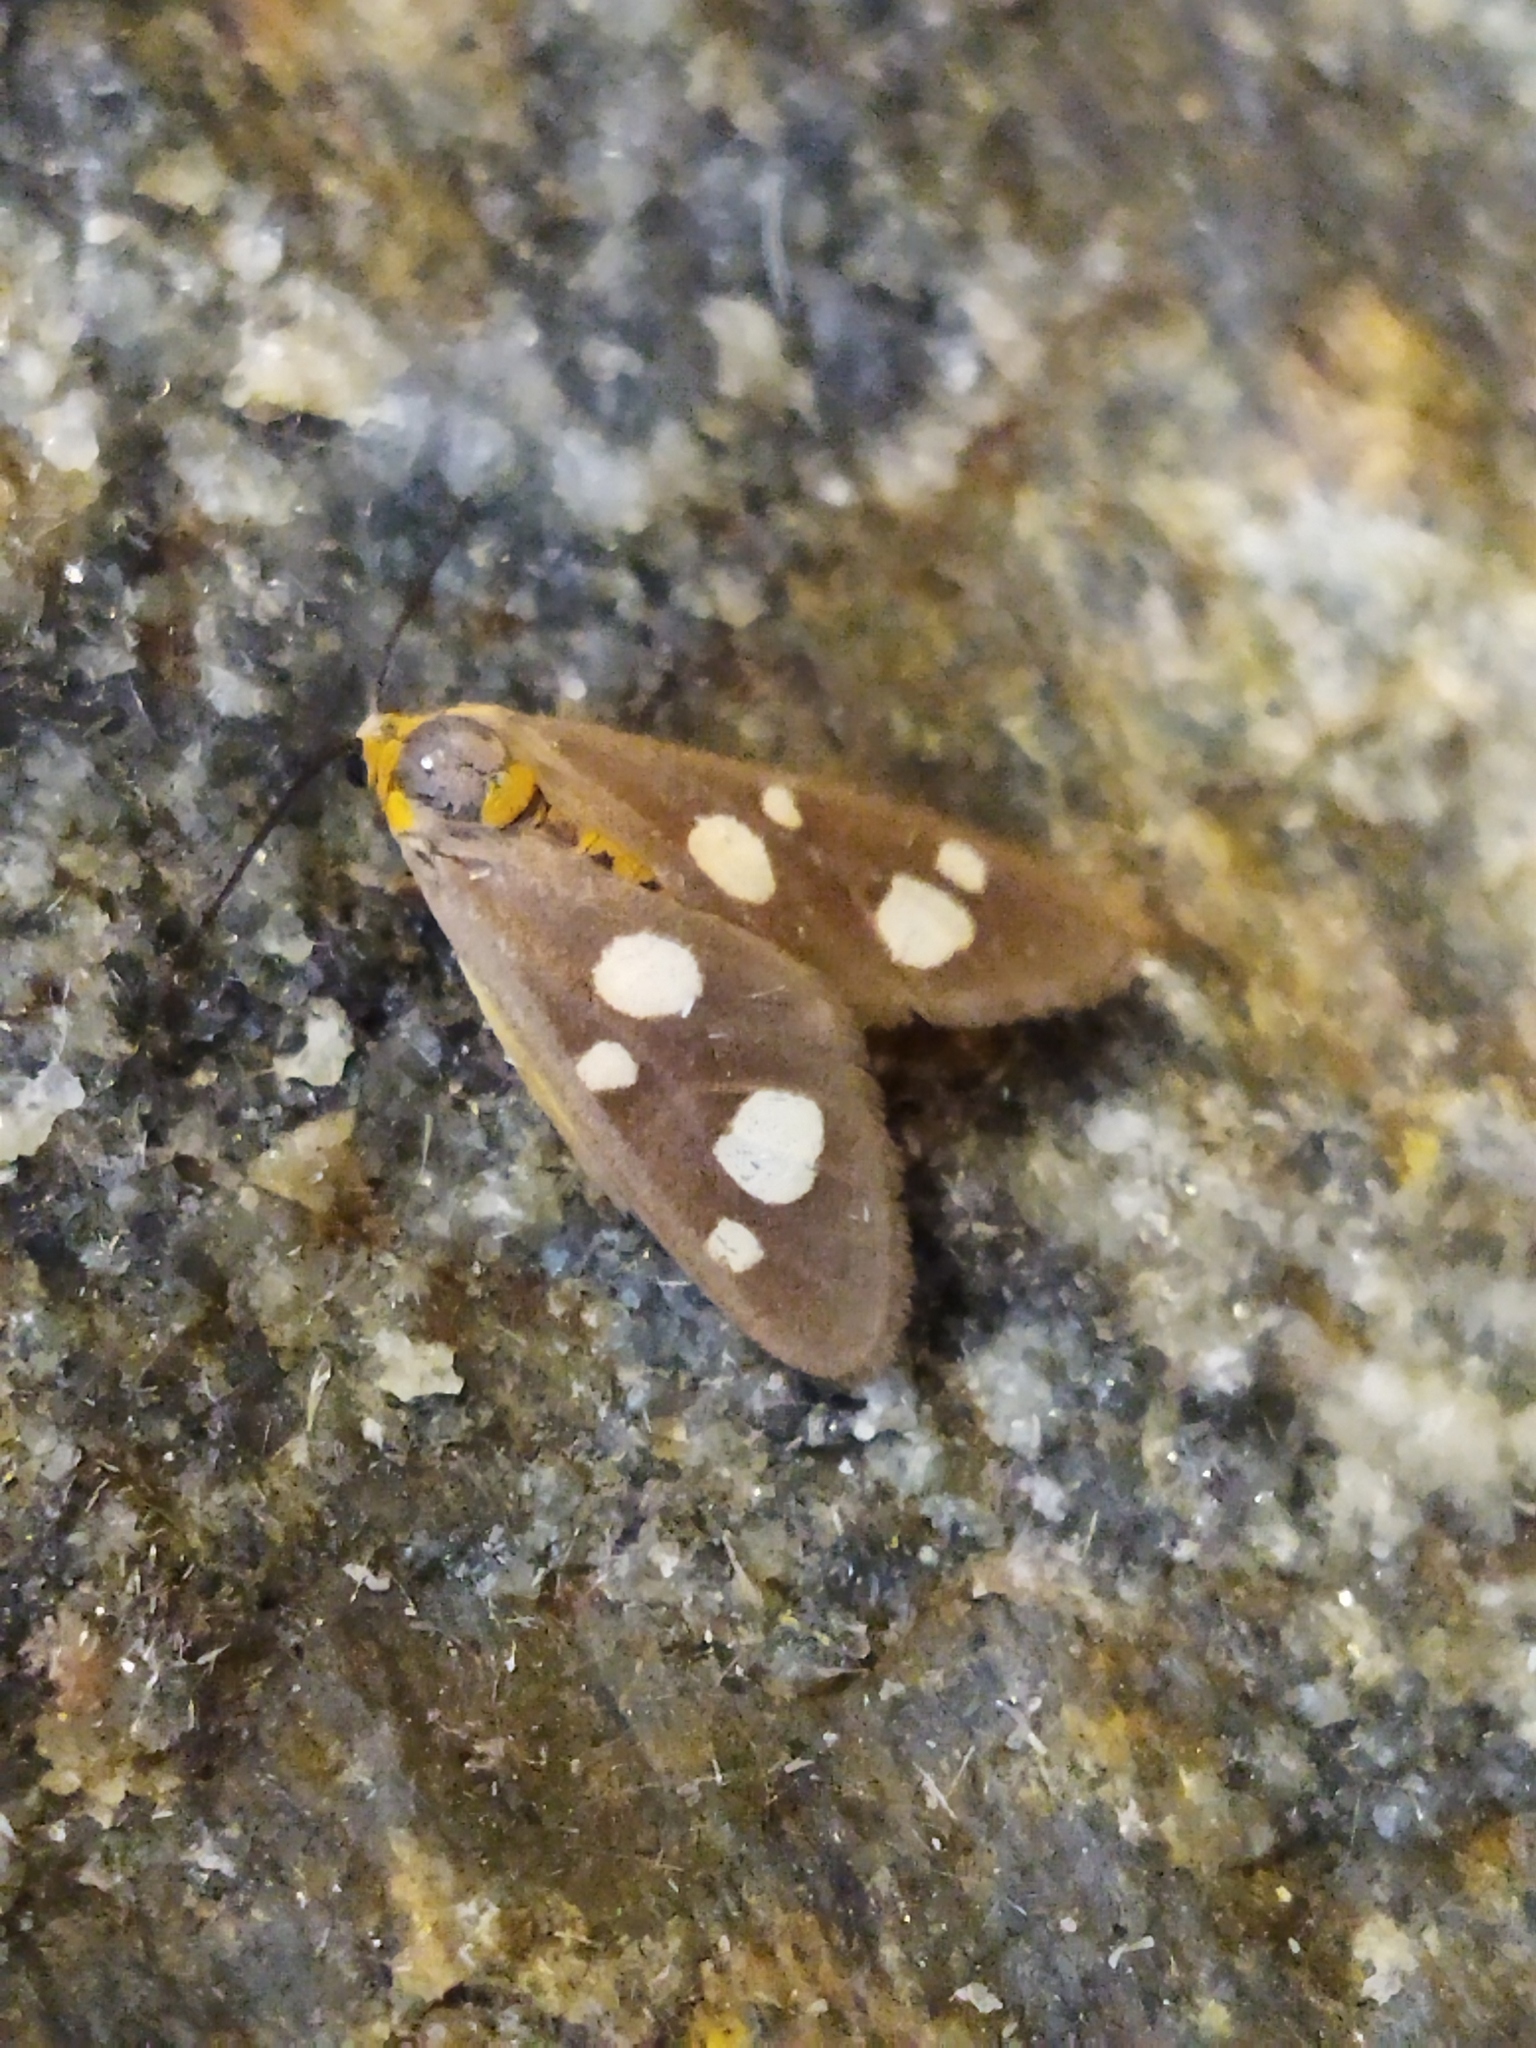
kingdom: Animalia
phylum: Arthropoda
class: Insecta
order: Lepidoptera
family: Erebidae
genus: Dysauxes
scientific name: Dysauxes punctata
